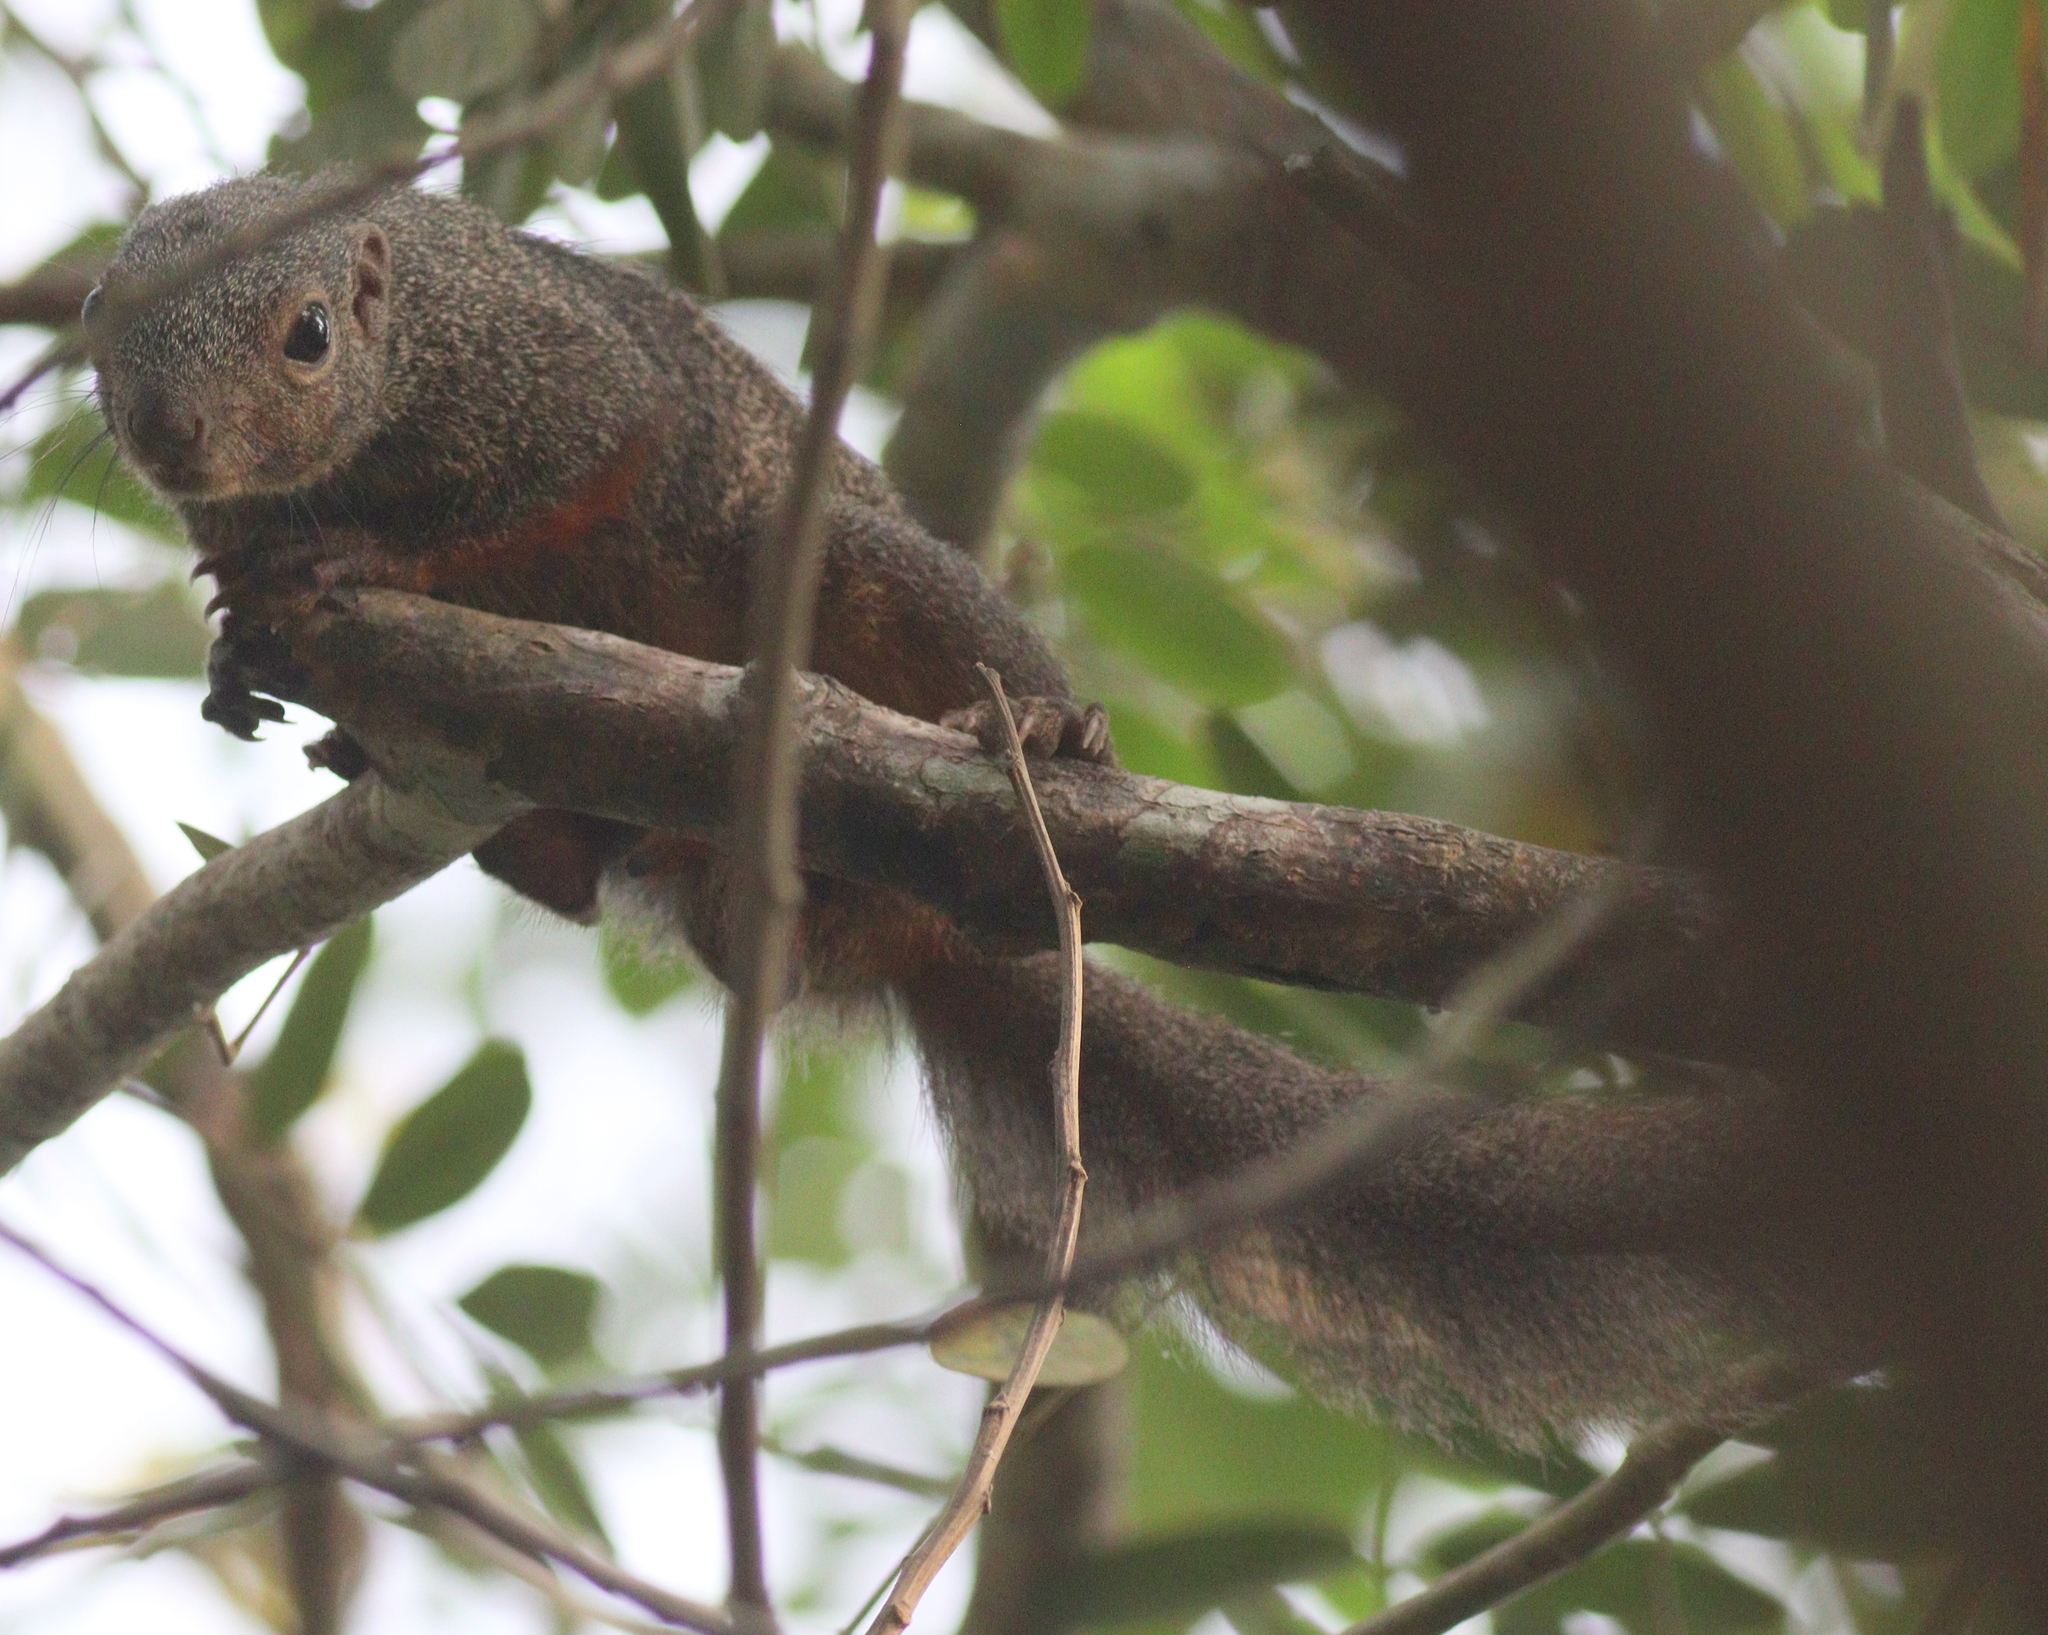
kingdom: Animalia
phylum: Chordata
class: Mammalia
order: Rodentia
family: Sciuridae
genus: Heliosciurus
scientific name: Heliosciurus rufobrachium
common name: Red-legged sun squirrel
